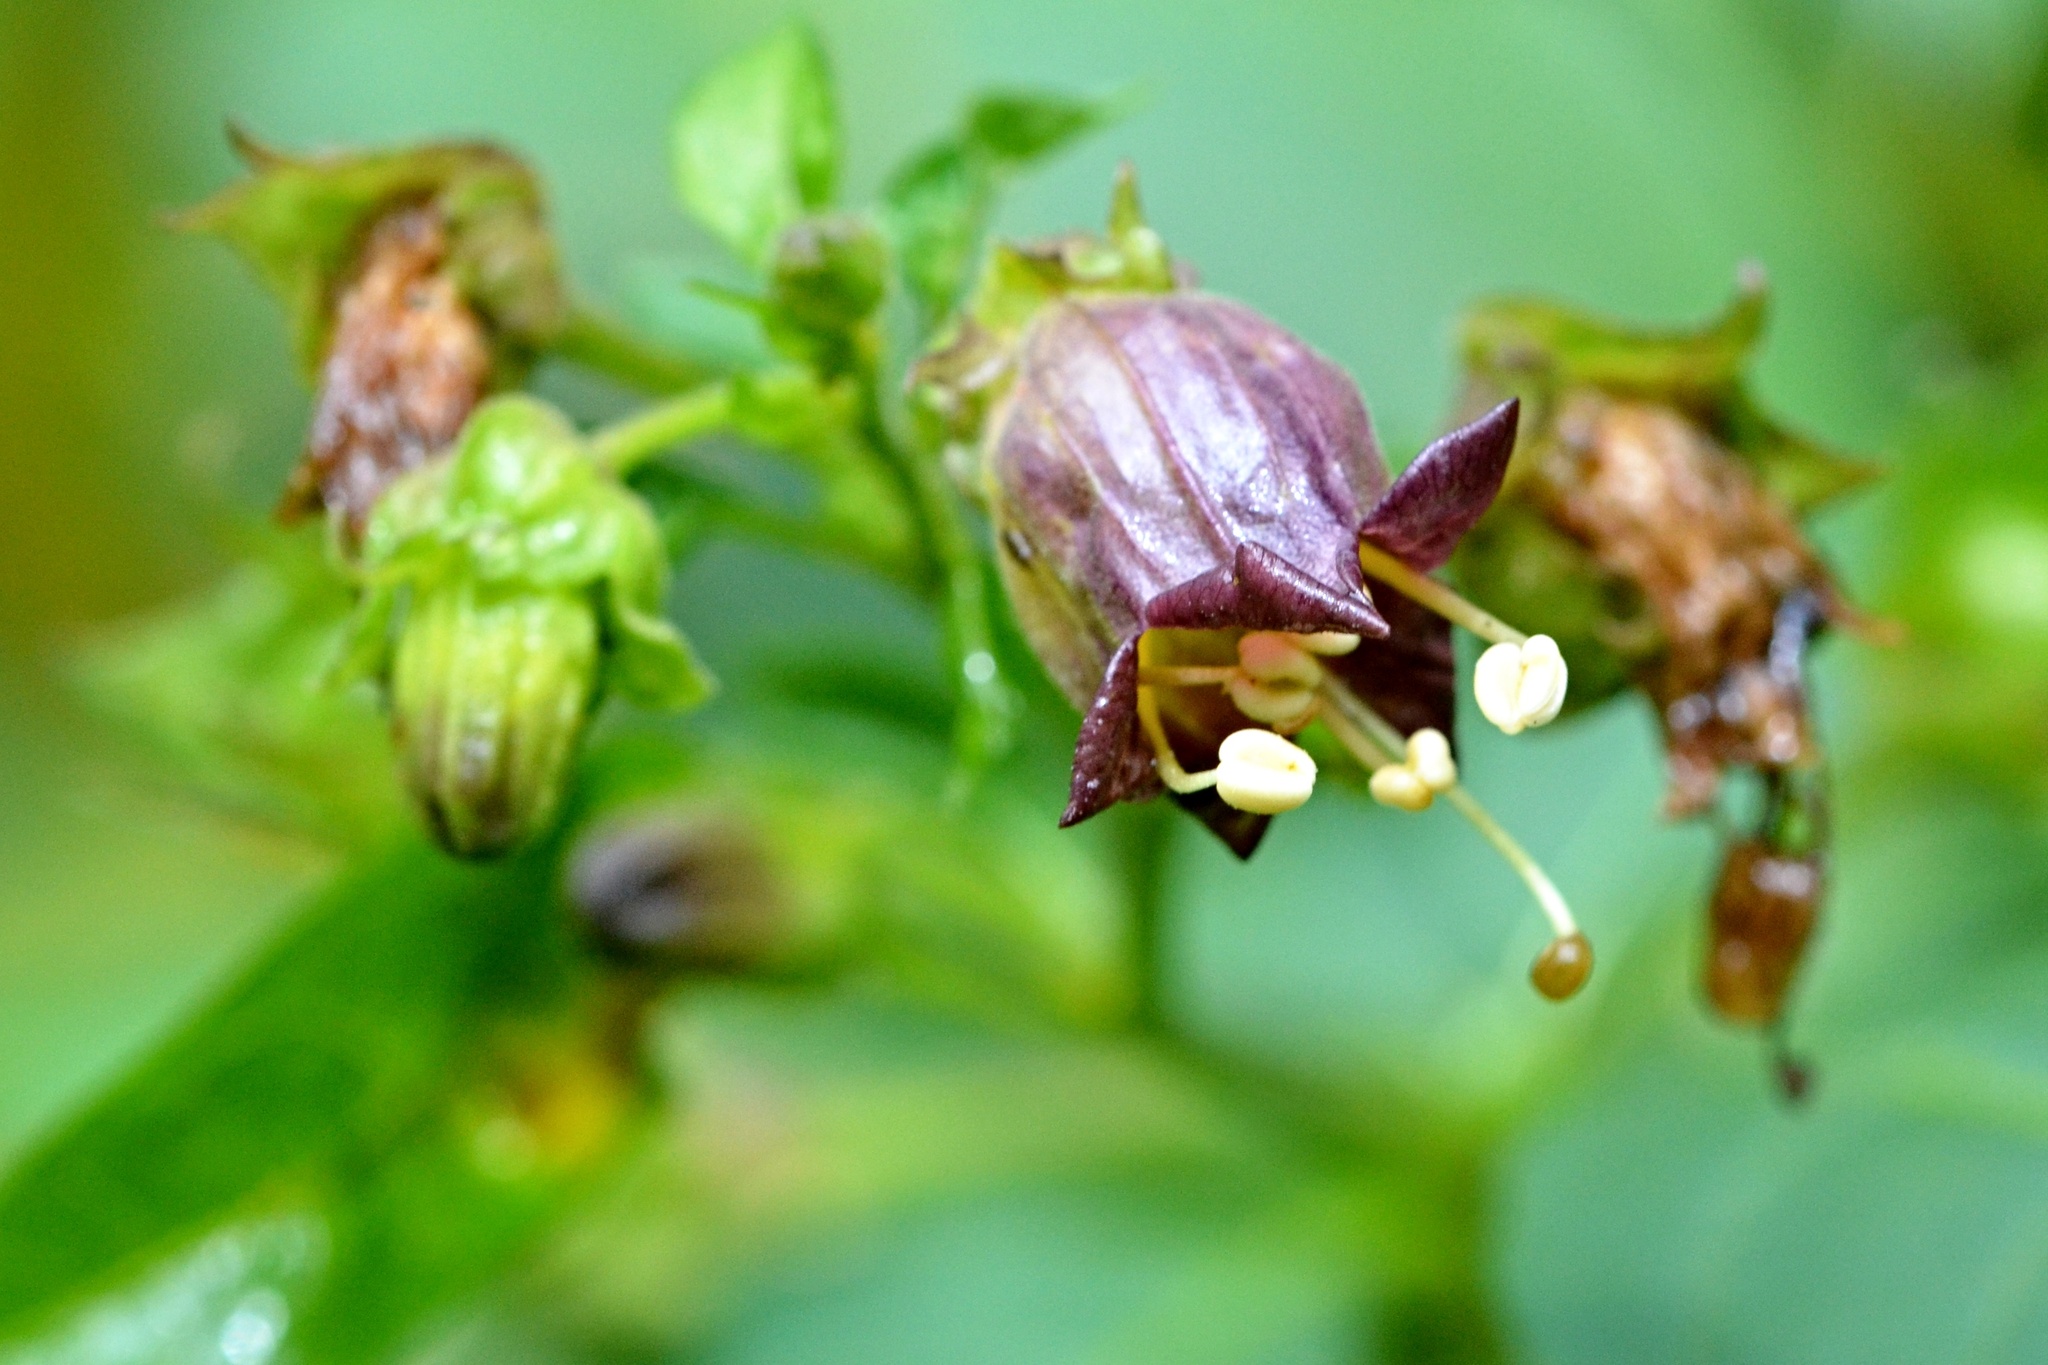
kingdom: Plantae
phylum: Tracheophyta
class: Magnoliopsida
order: Solanales
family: Solanaceae
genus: Atropa
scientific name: Atropa belladonna
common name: Deadly nightshade
